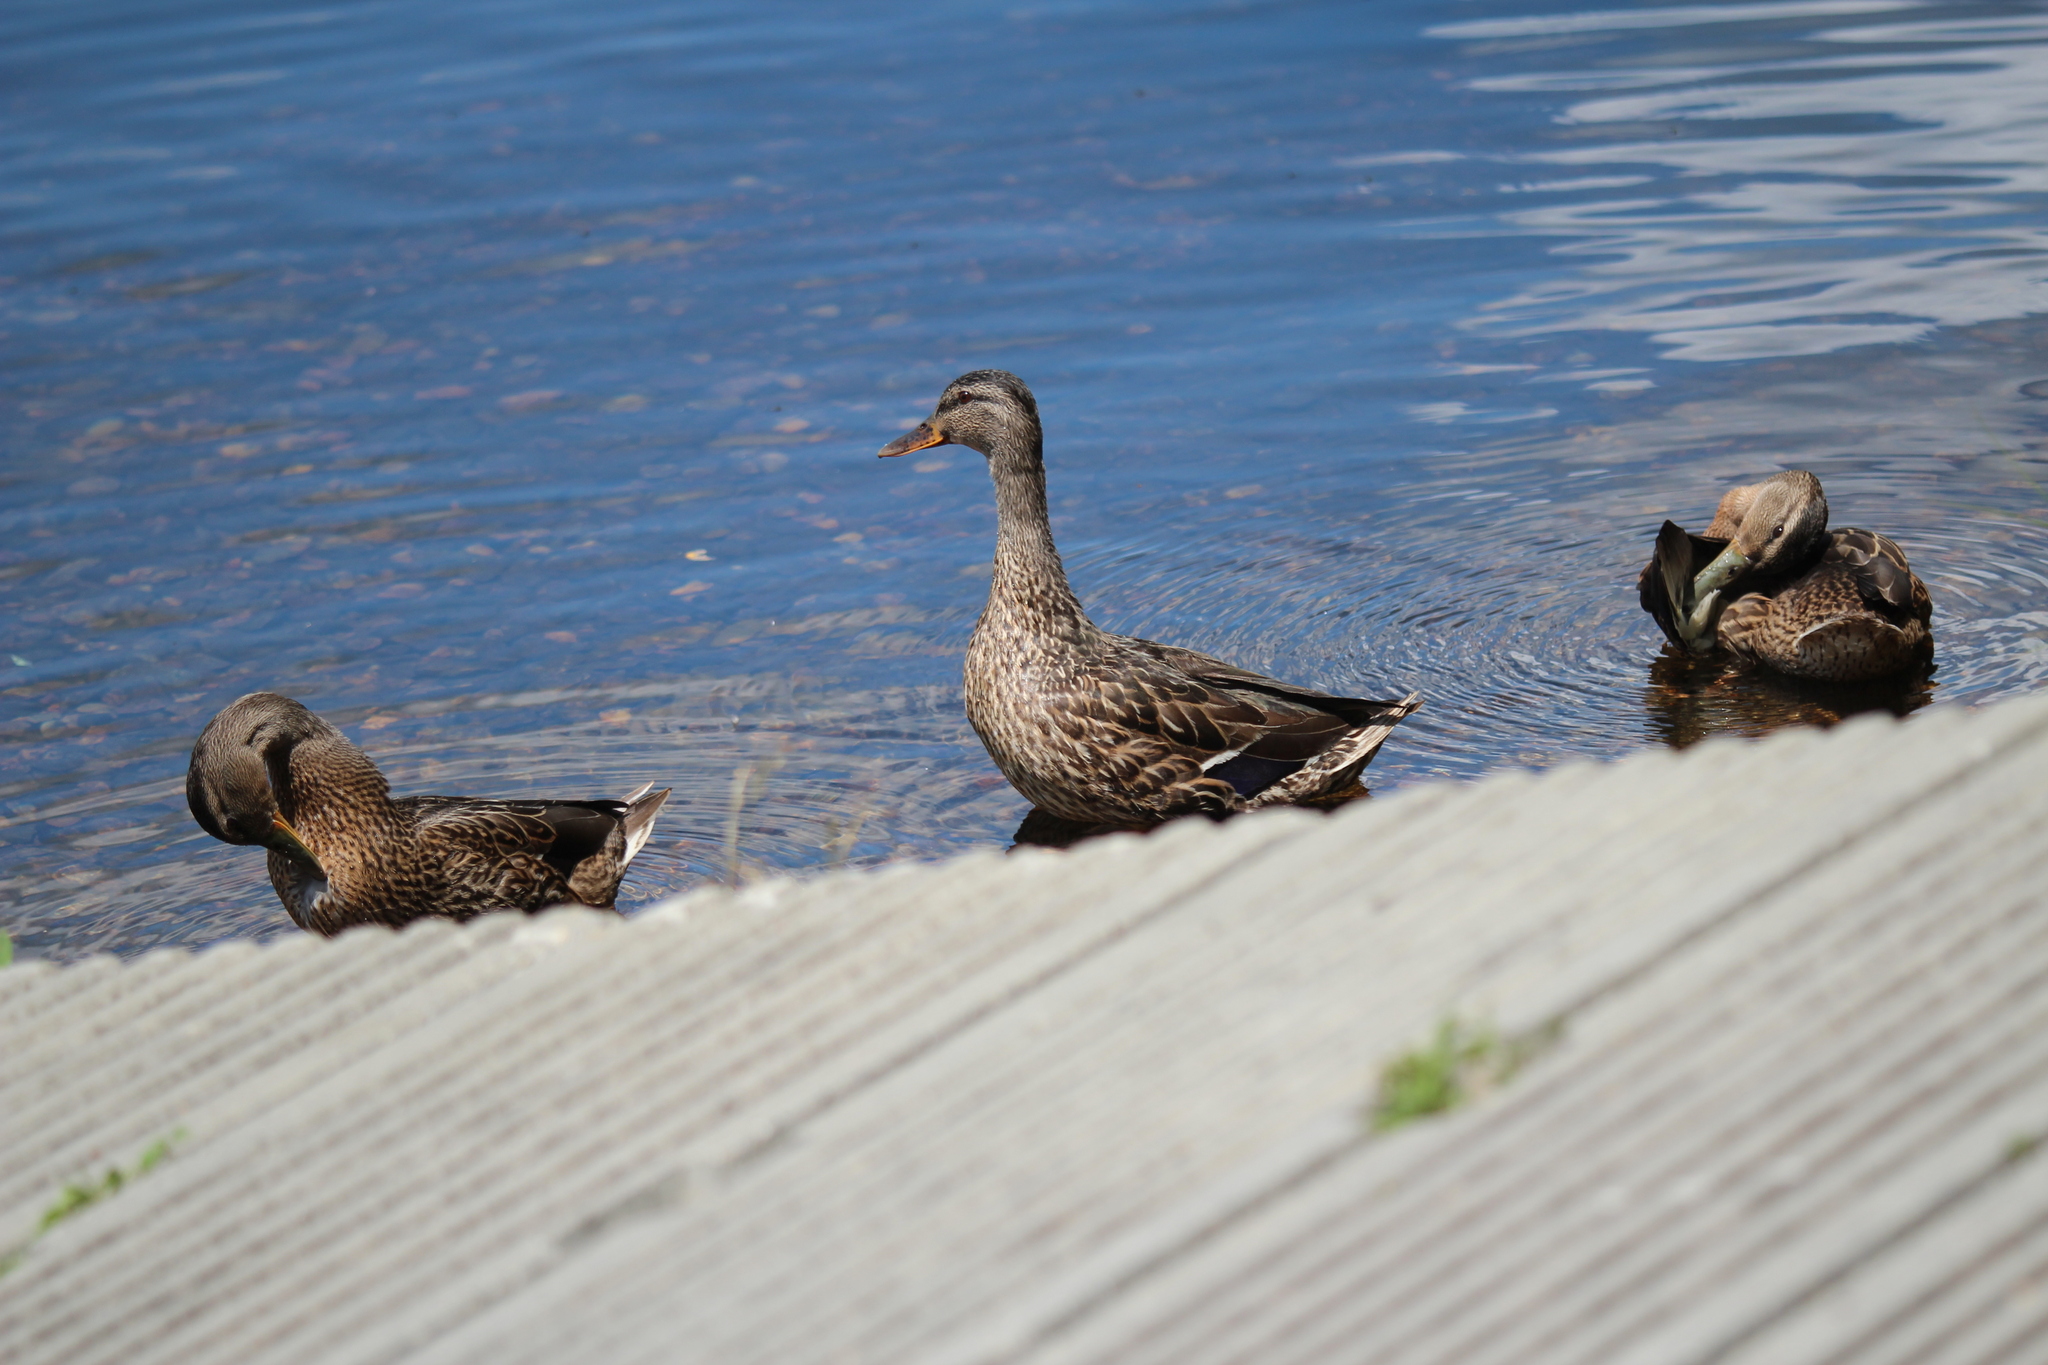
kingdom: Animalia
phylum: Chordata
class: Aves
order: Anseriformes
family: Anatidae
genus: Anas
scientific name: Anas platyrhynchos
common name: Mallard
